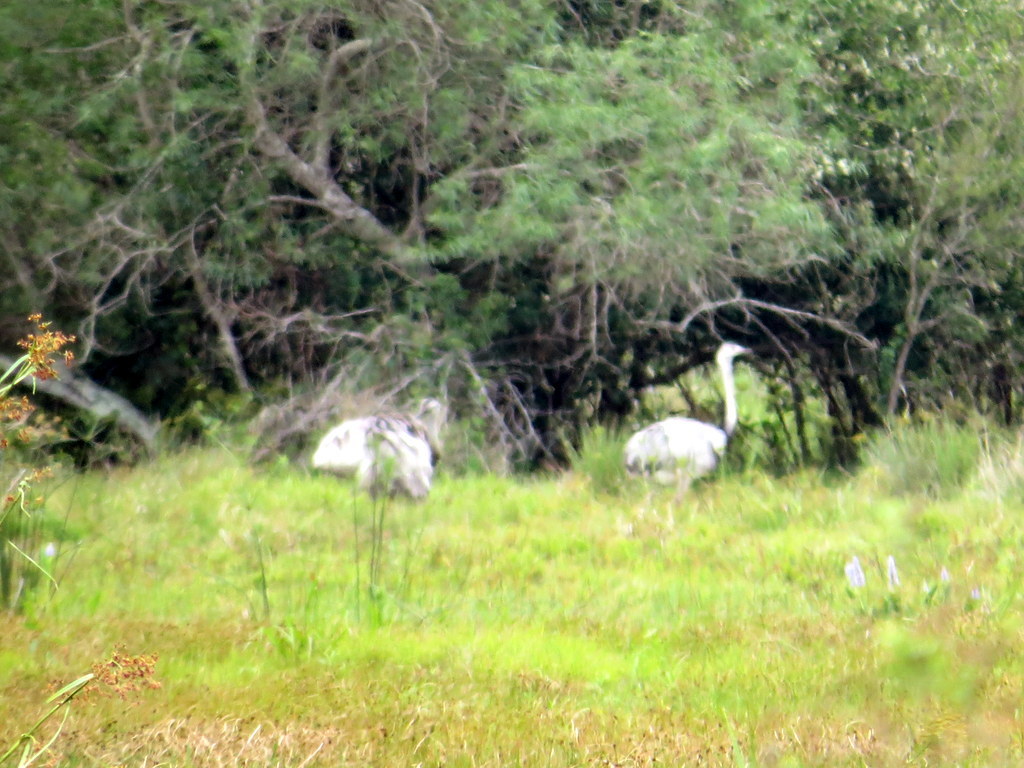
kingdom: Animalia
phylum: Chordata
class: Aves
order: Rheiformes
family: Rheidae
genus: Rhea
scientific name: Rhea americana
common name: Greater rhea
